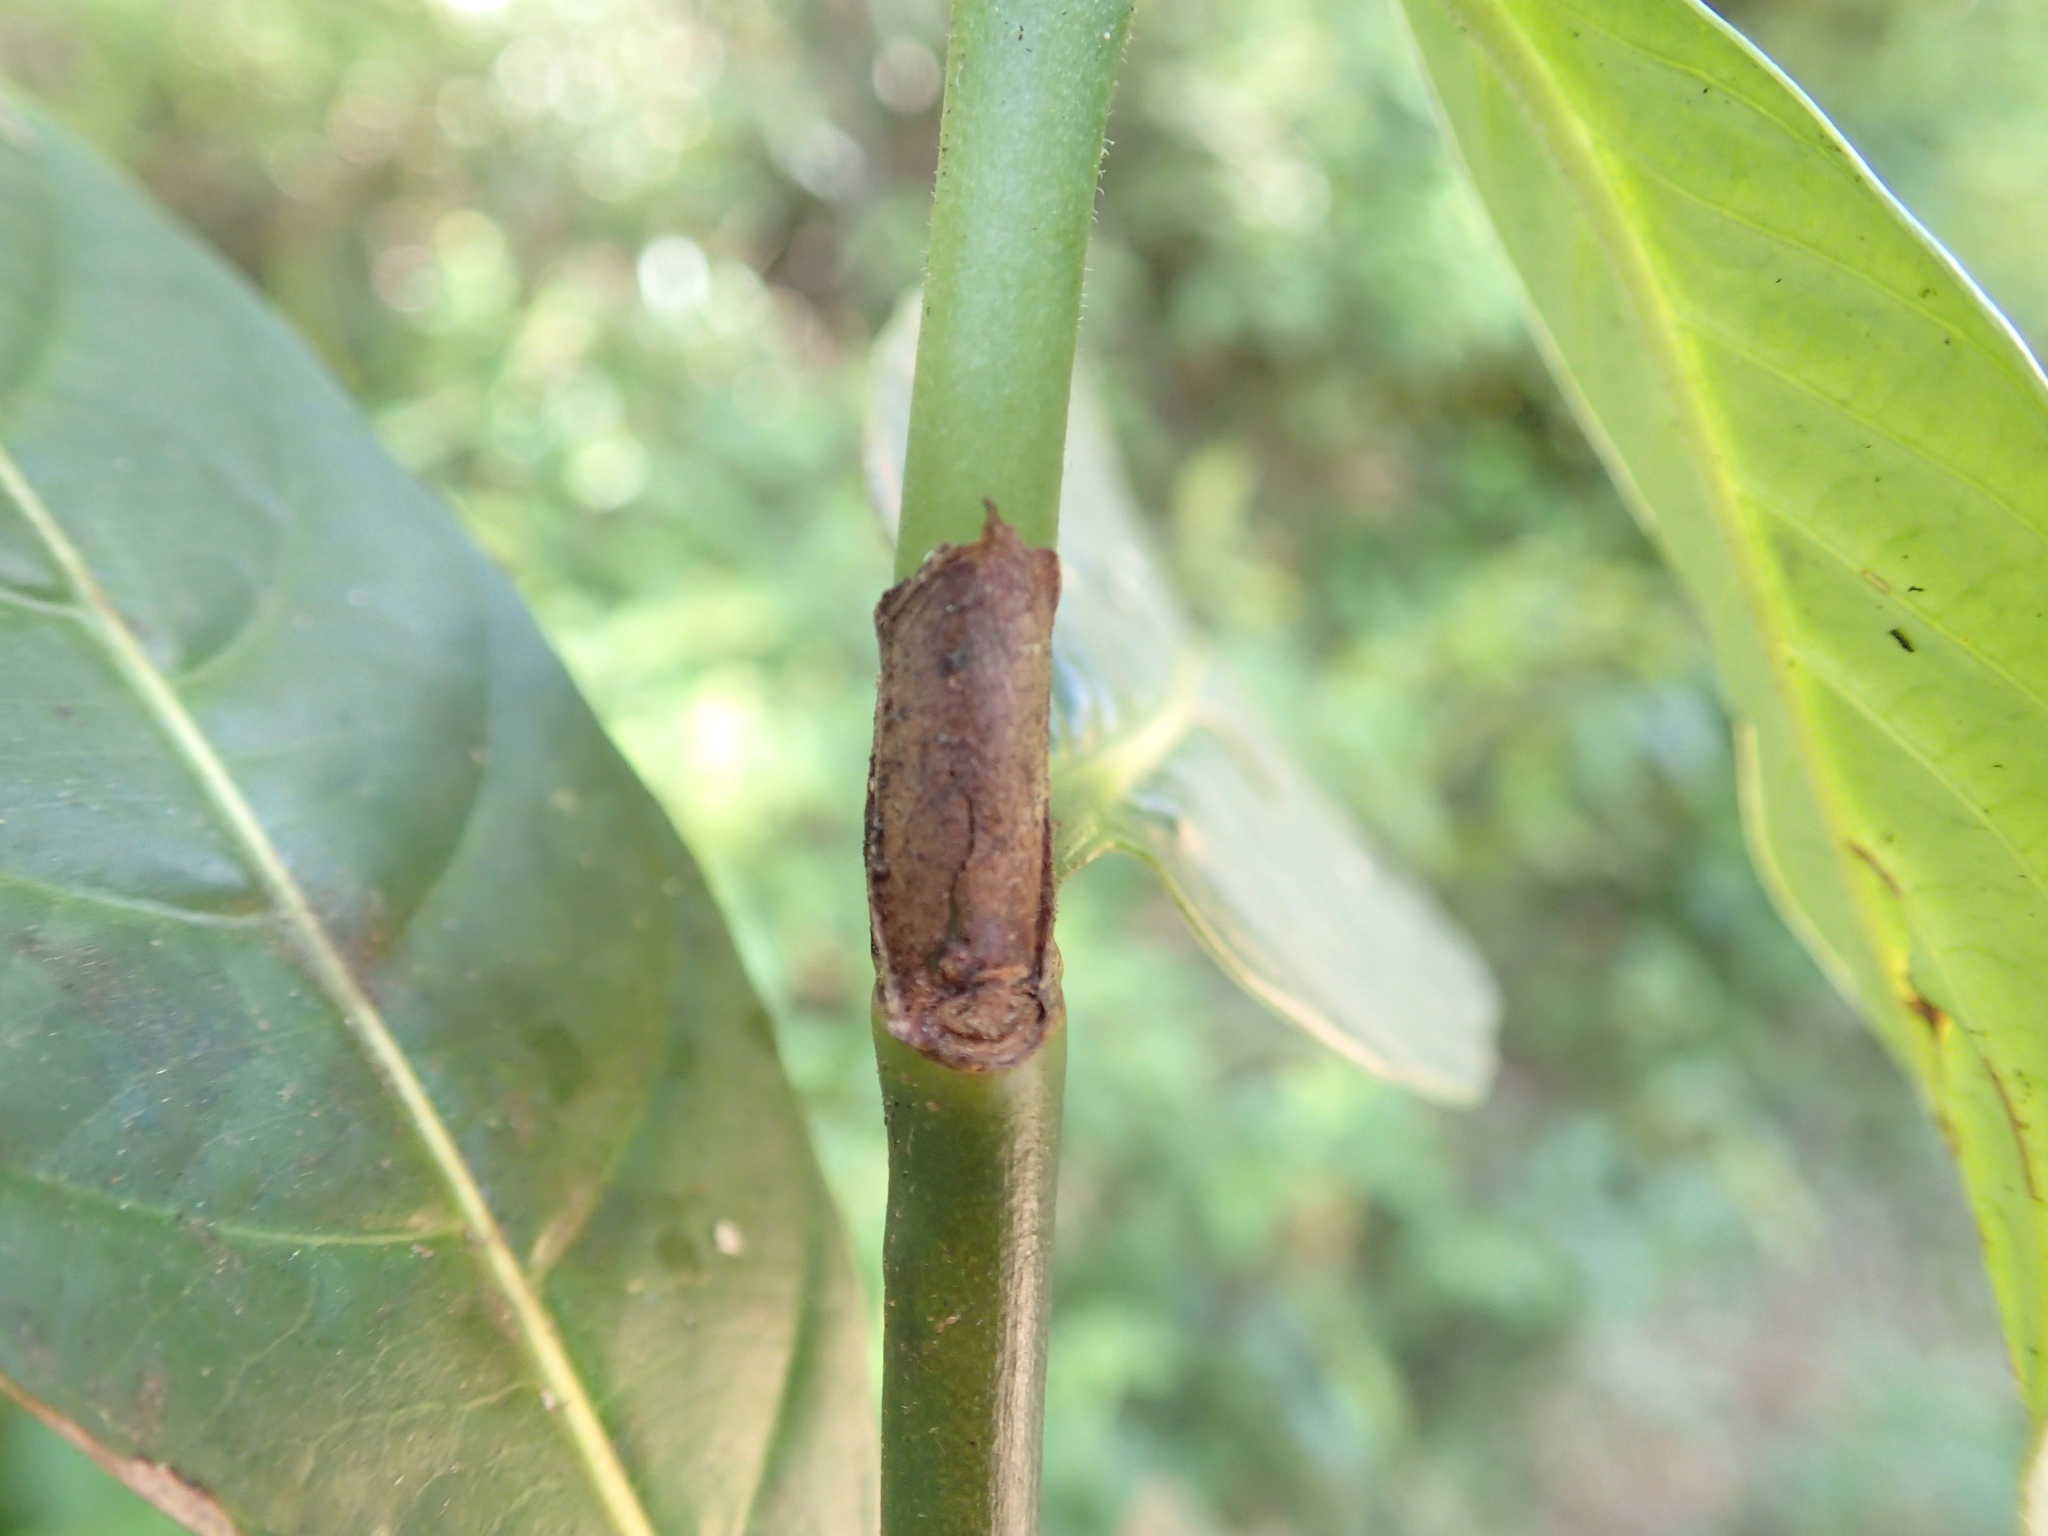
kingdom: Plantae
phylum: Tracheophyta
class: Magnoliopsida
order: Gentianales
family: Rubiaceae
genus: Gaertnera
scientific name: Gaertnera phyllosepala
